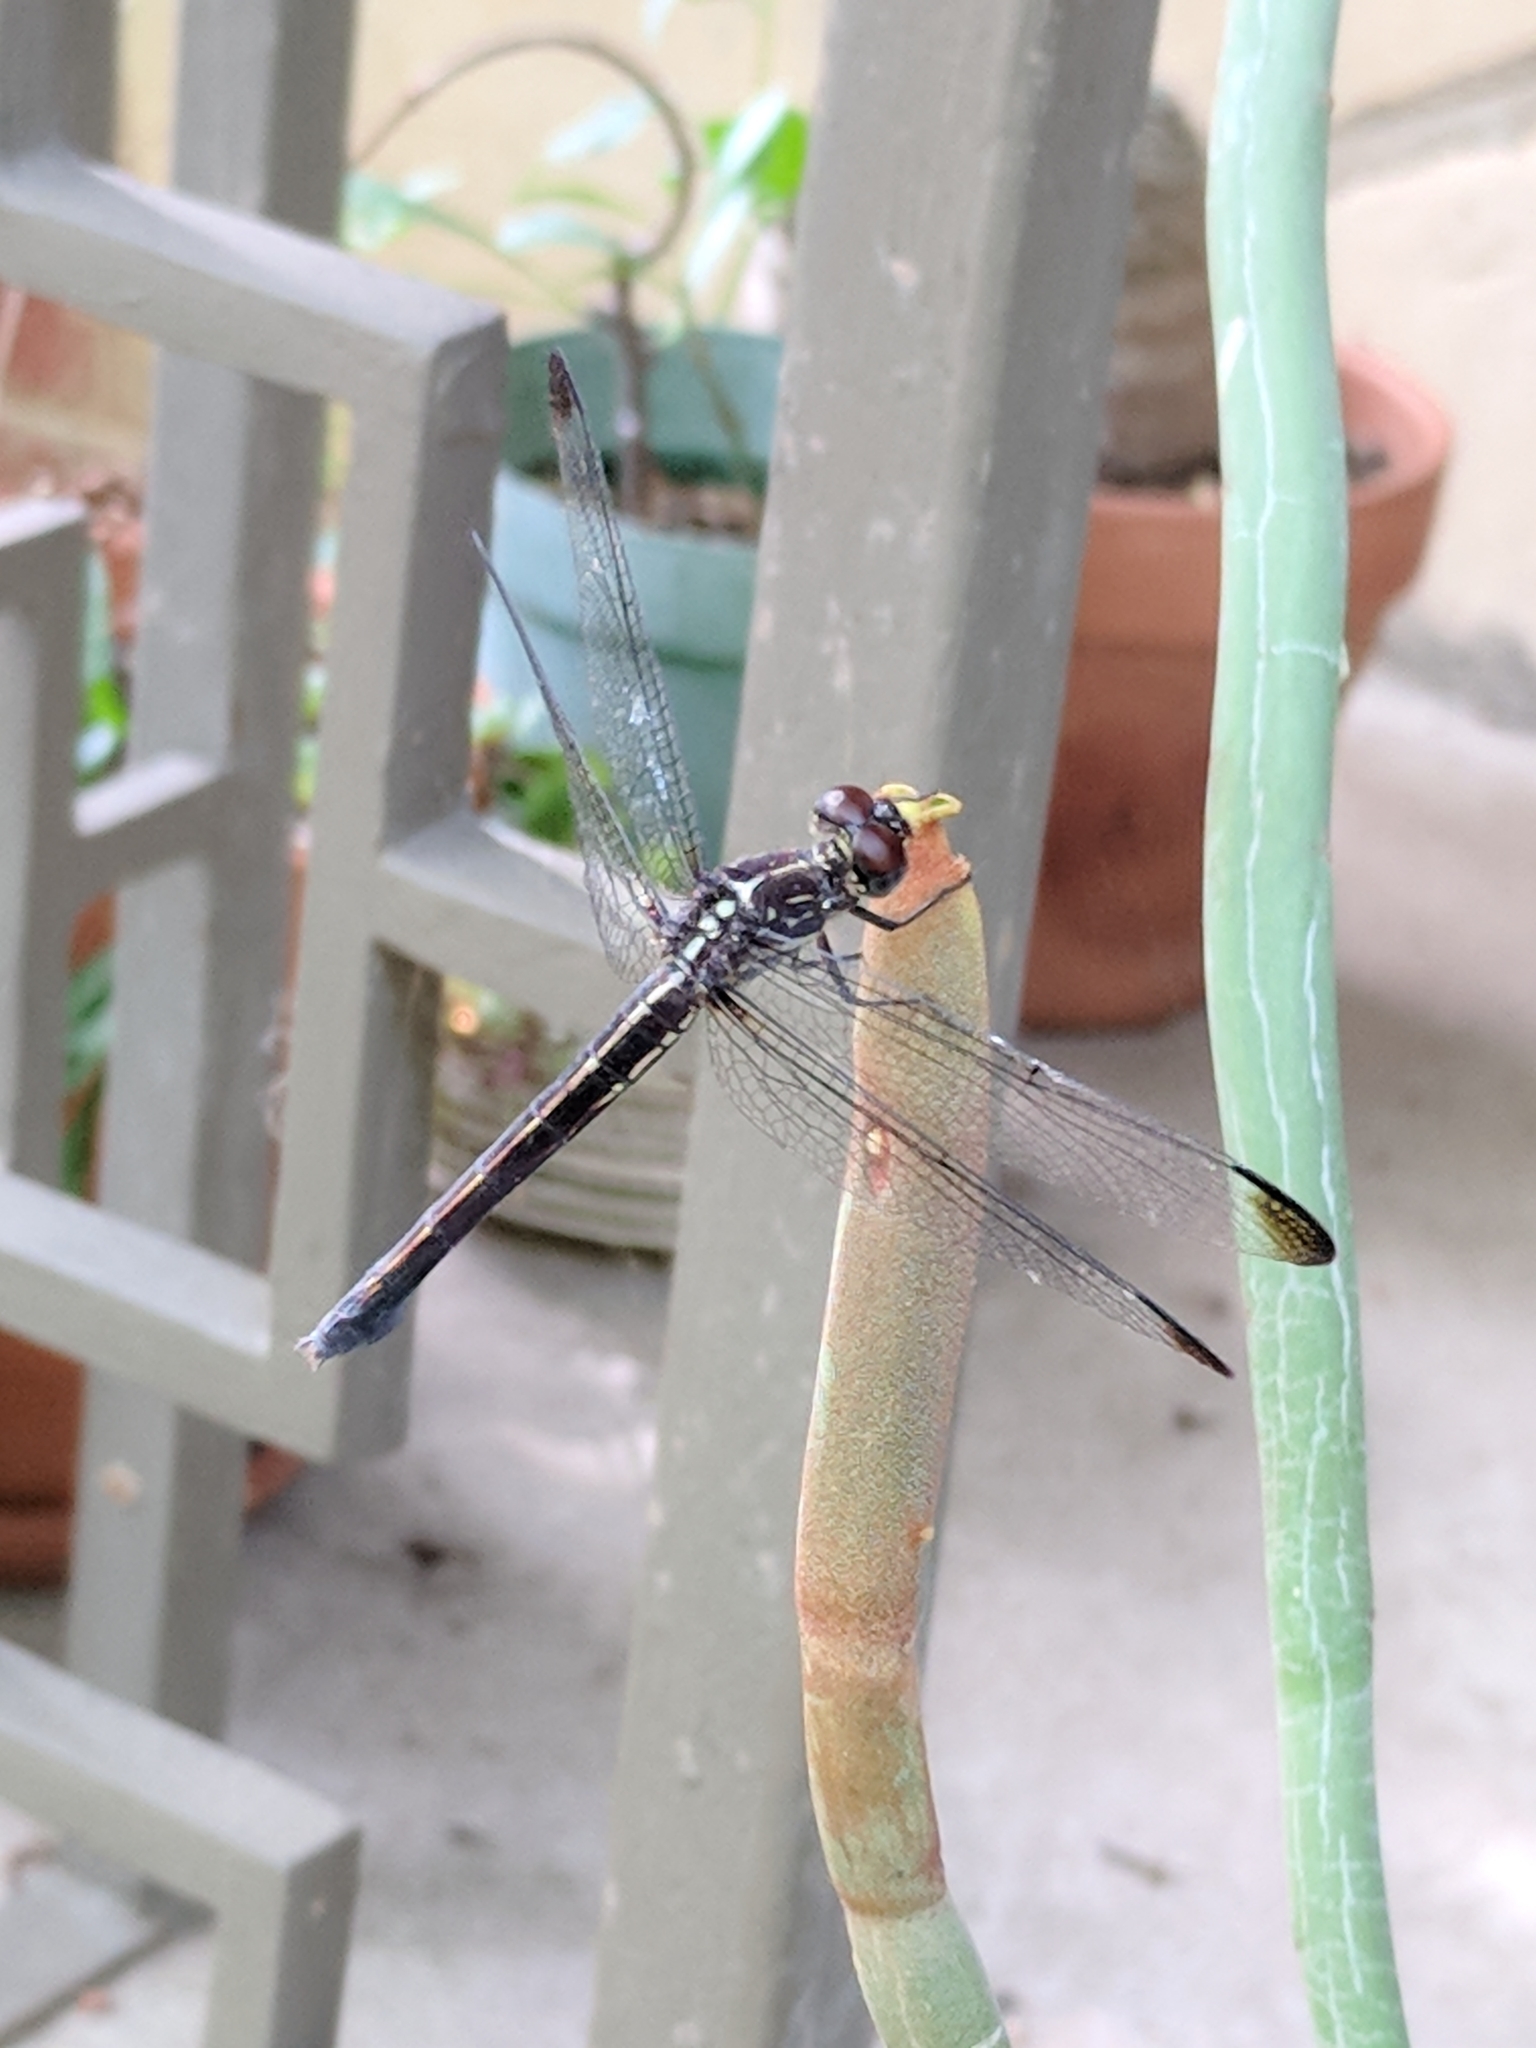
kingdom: Animalia
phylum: Arthropoda
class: Insecta
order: Odonata
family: Libellulidae
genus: Cannaphila
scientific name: Cannaphila insularis
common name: Gray-waisted skimmer
